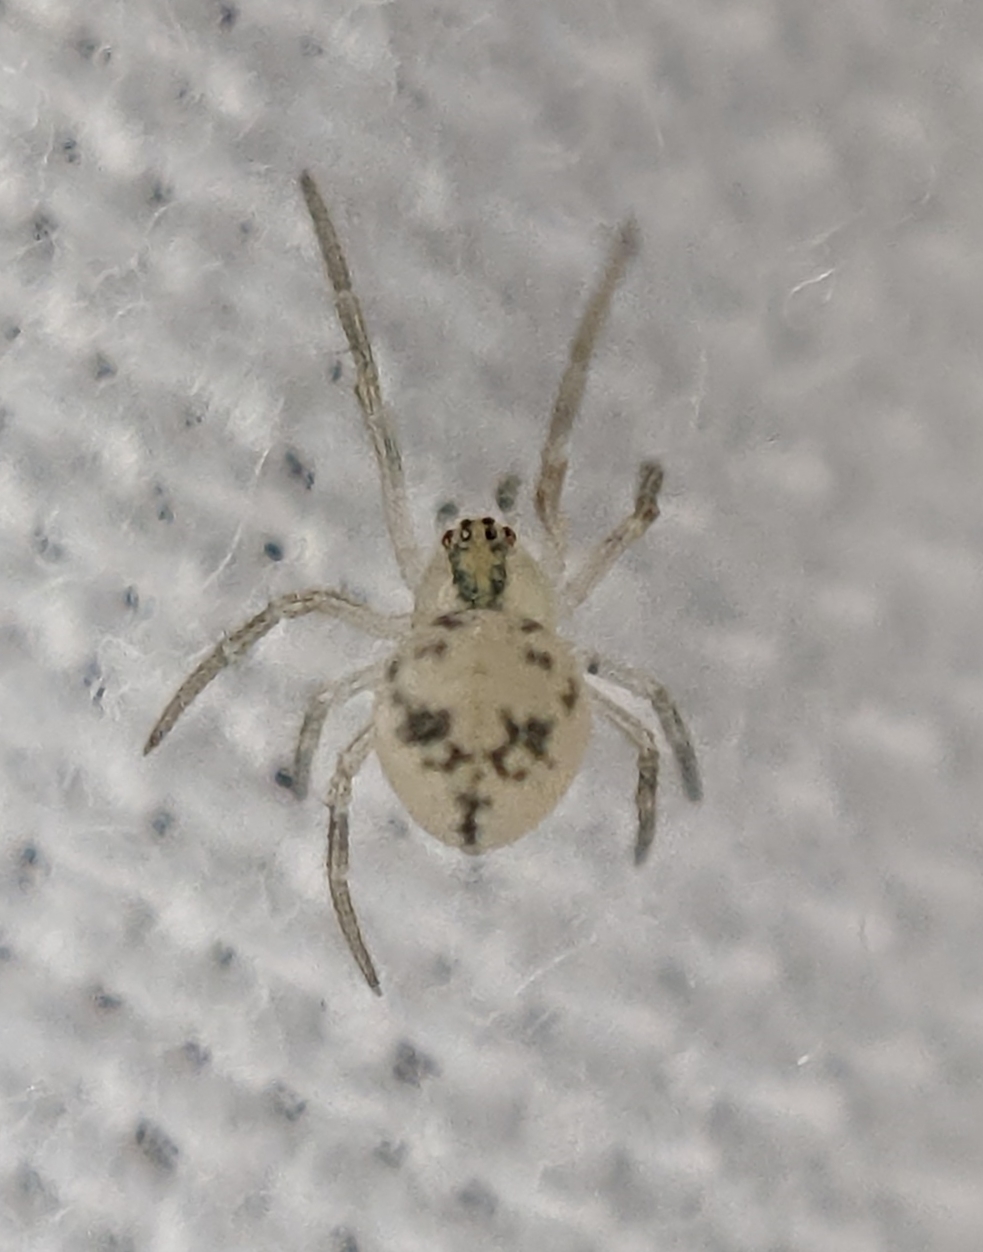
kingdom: Animalia
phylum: Arthropoda
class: Arachnida
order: Araneae
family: Theridiidae
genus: Paidiscura
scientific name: Paidiscura pallens
